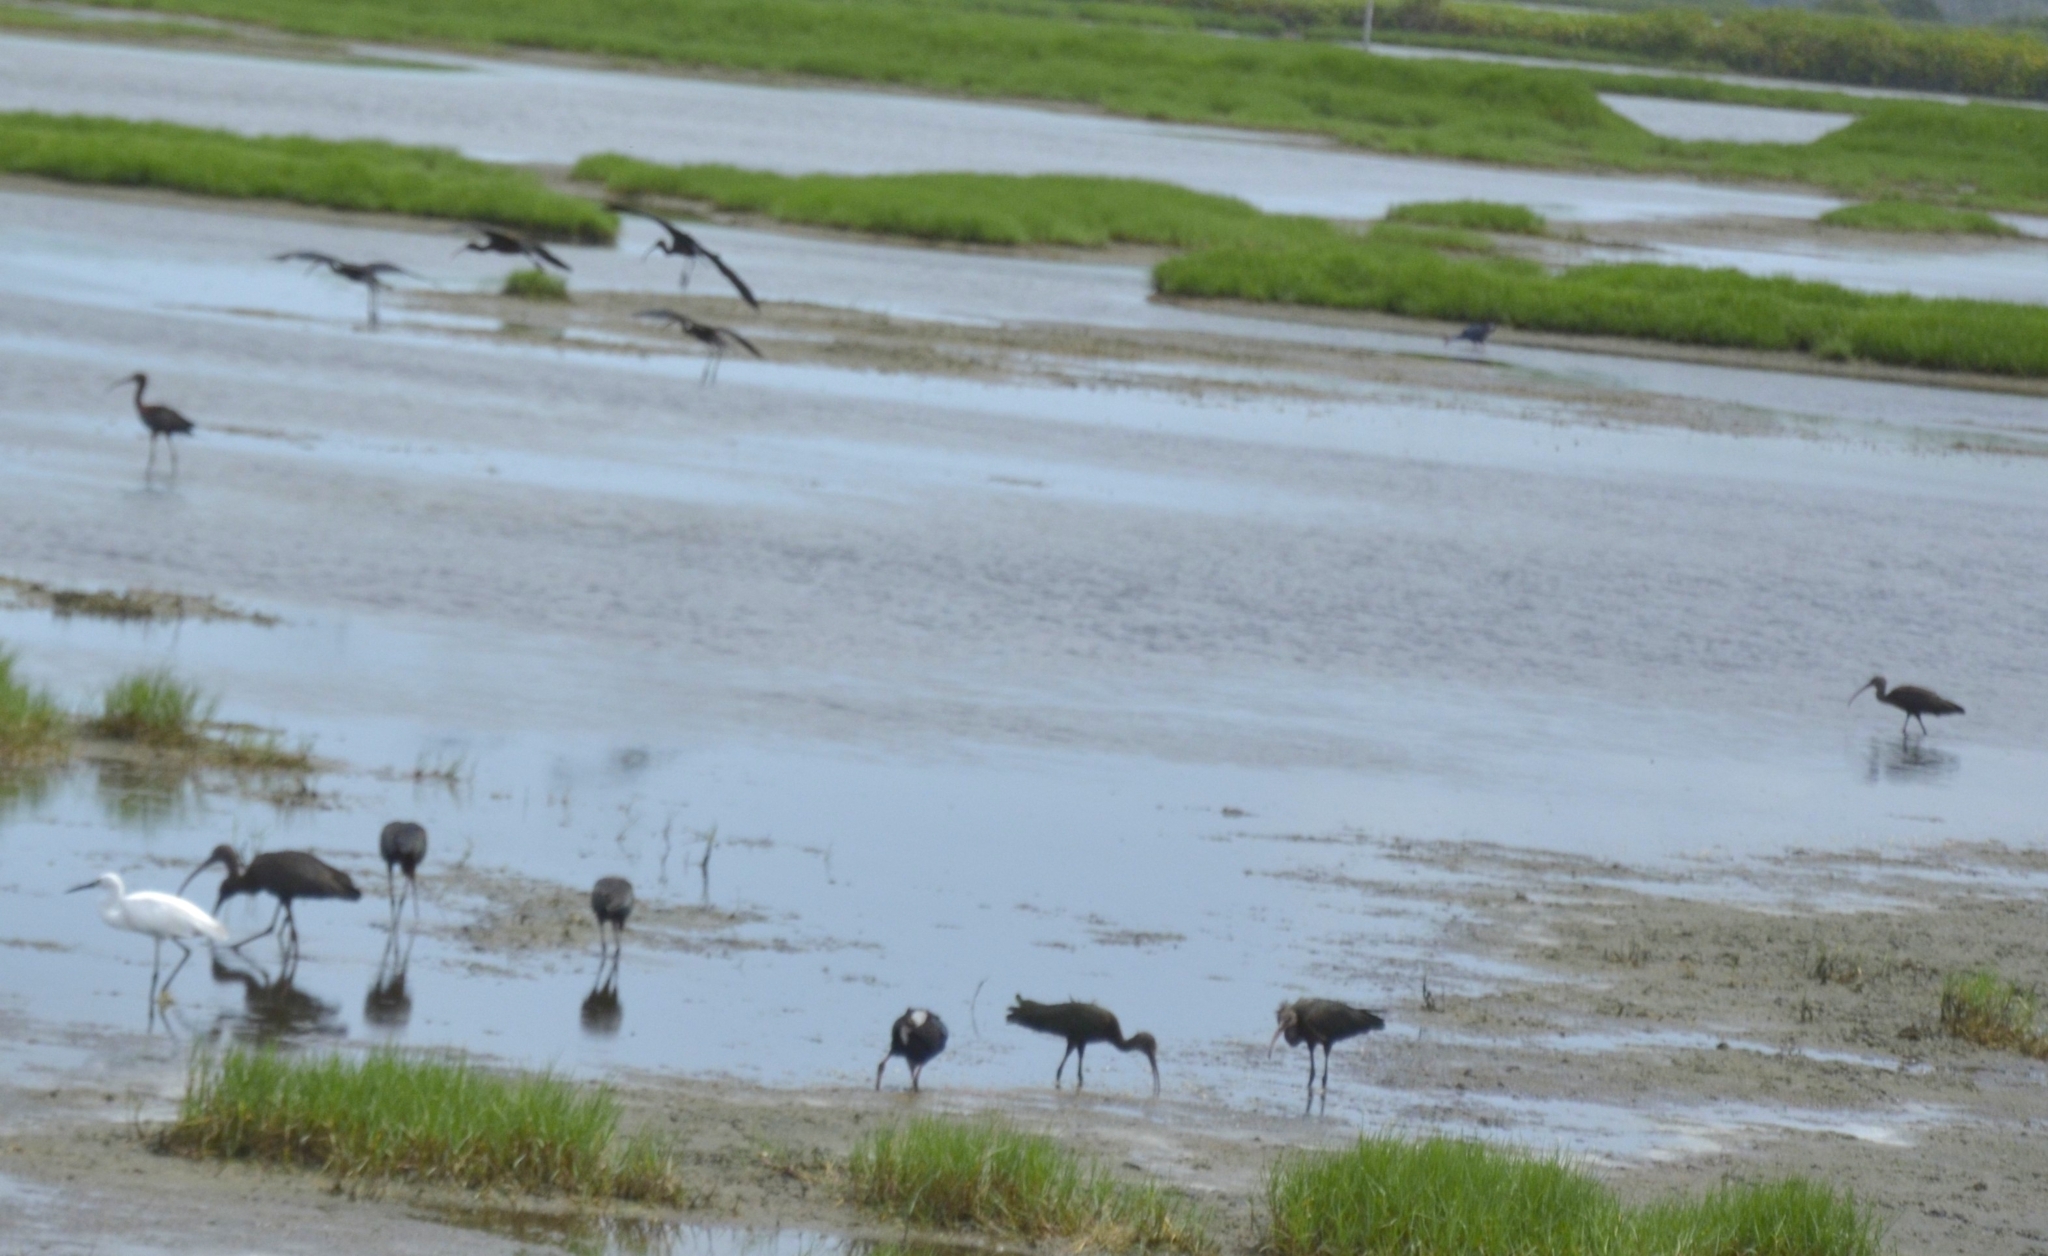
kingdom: Animalia
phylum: Chordata
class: Aves
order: Pelecaniformes
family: Threskiornithidae
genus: Plegadis
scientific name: Plegadis falcinellus
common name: Glossy ibis
